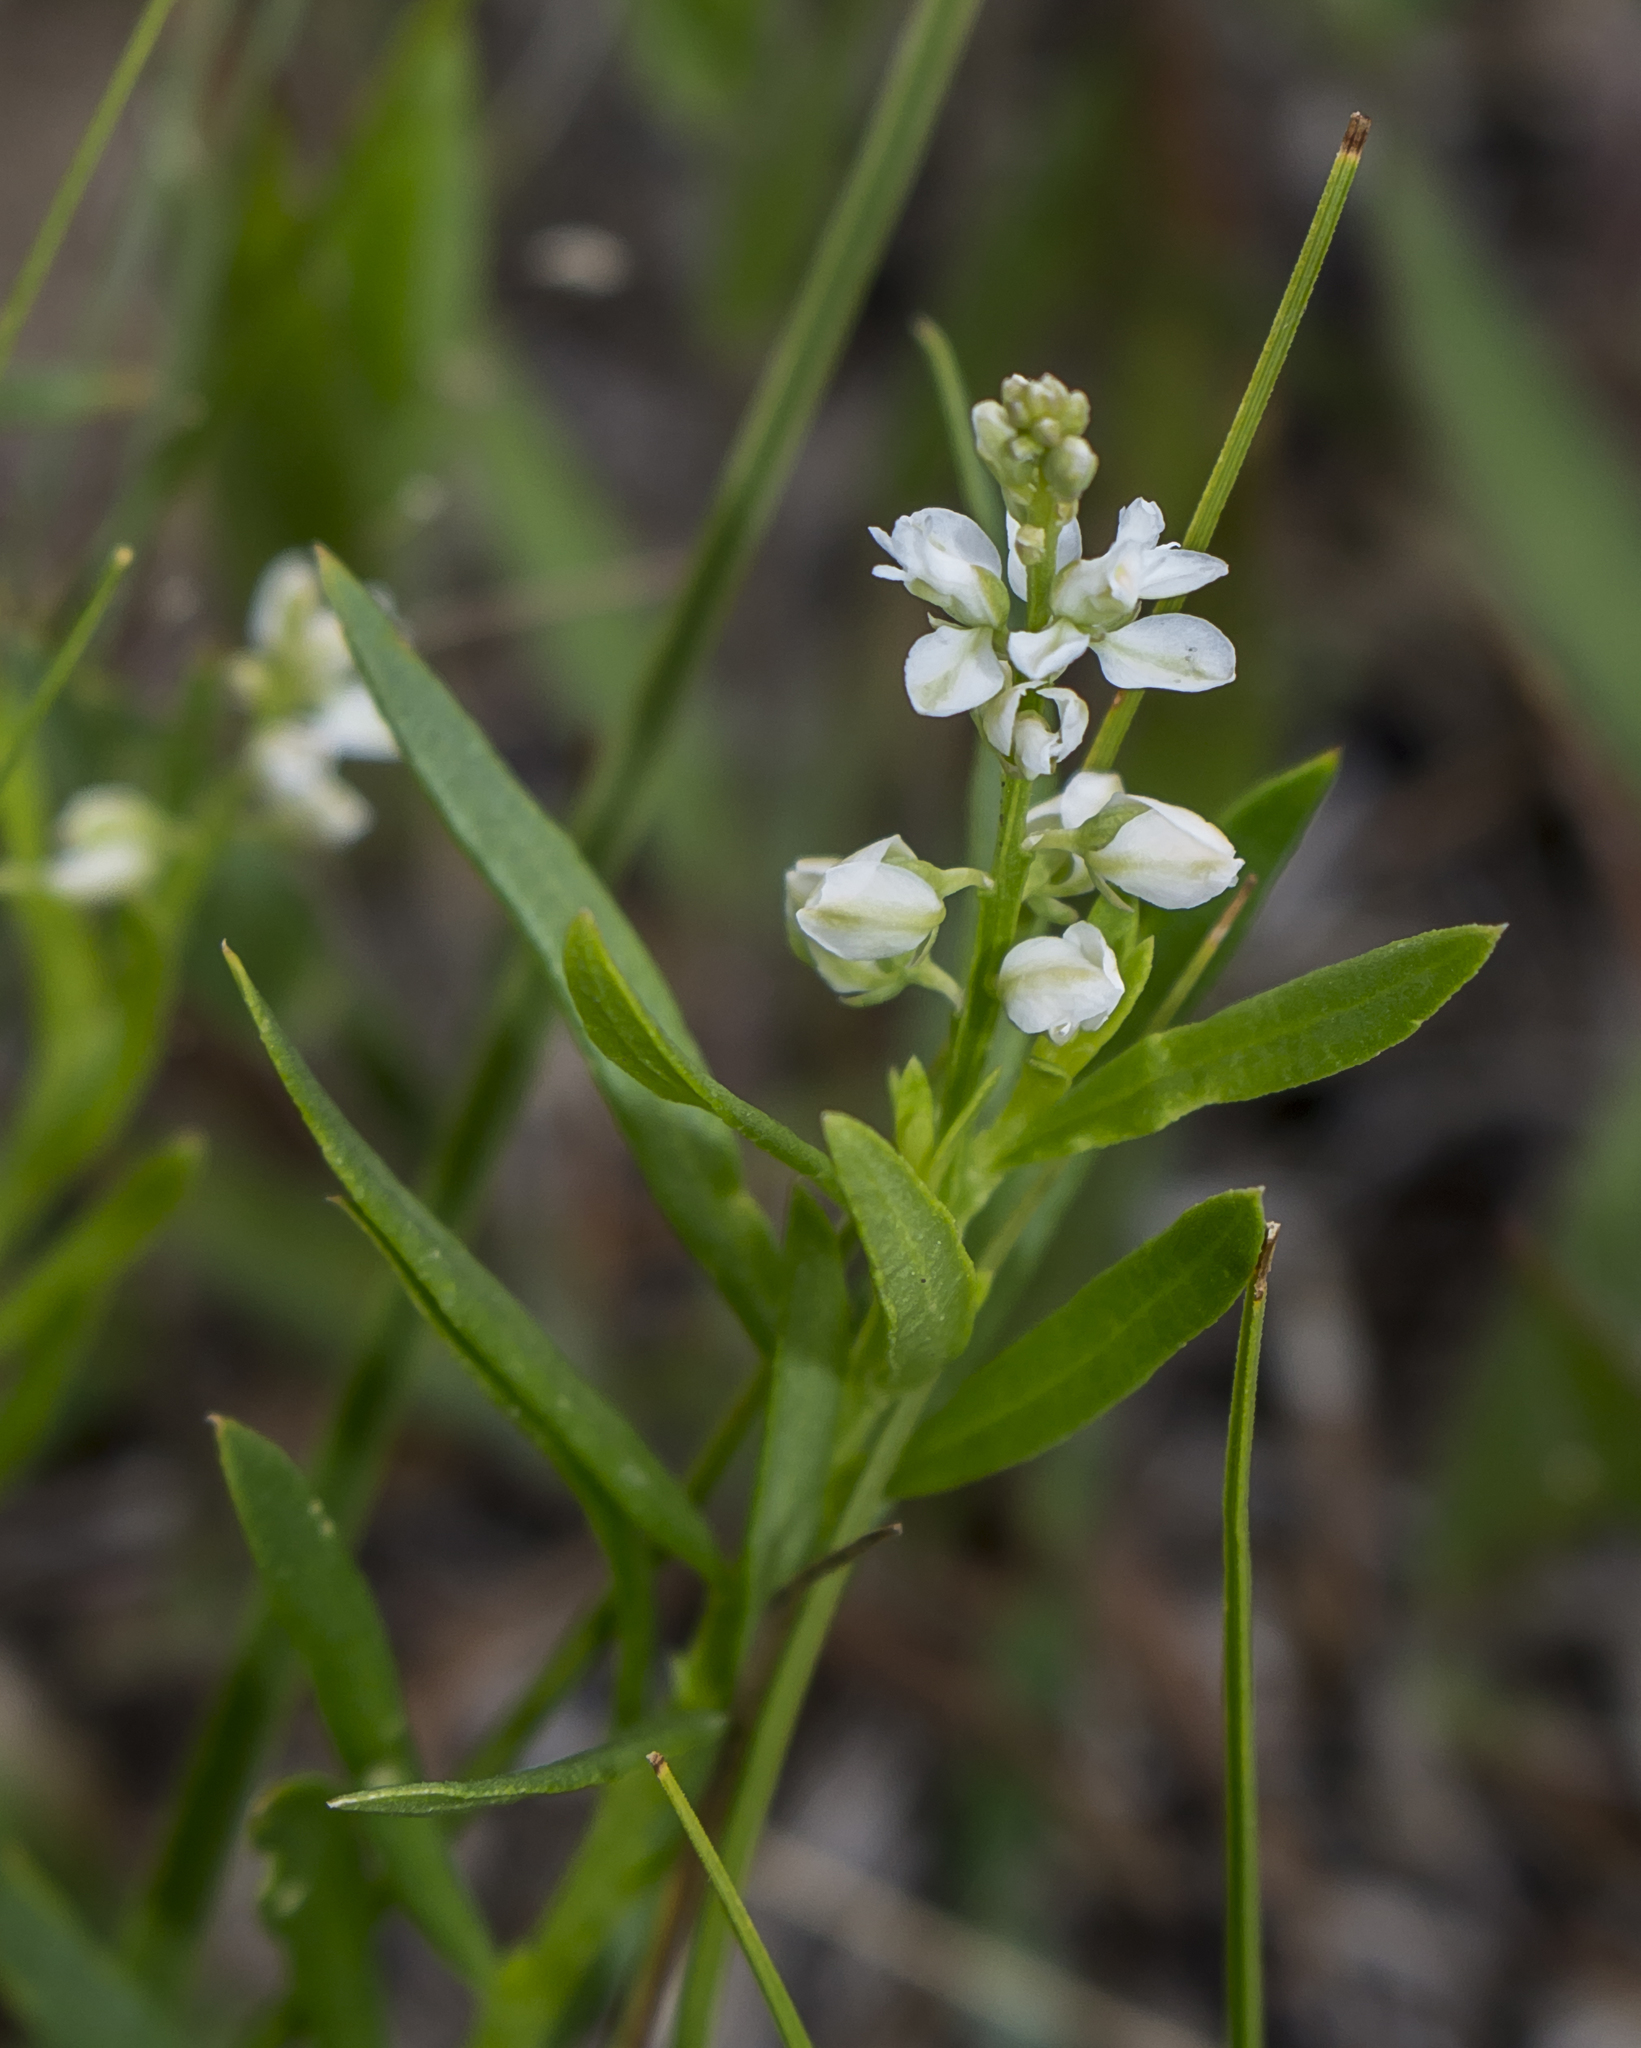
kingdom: Plantae
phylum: Tracheophyta
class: Magnoliopsida
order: Fabales
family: Polygalaceae
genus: Polygala
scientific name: Polygala polygama
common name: Bitter milkwort
